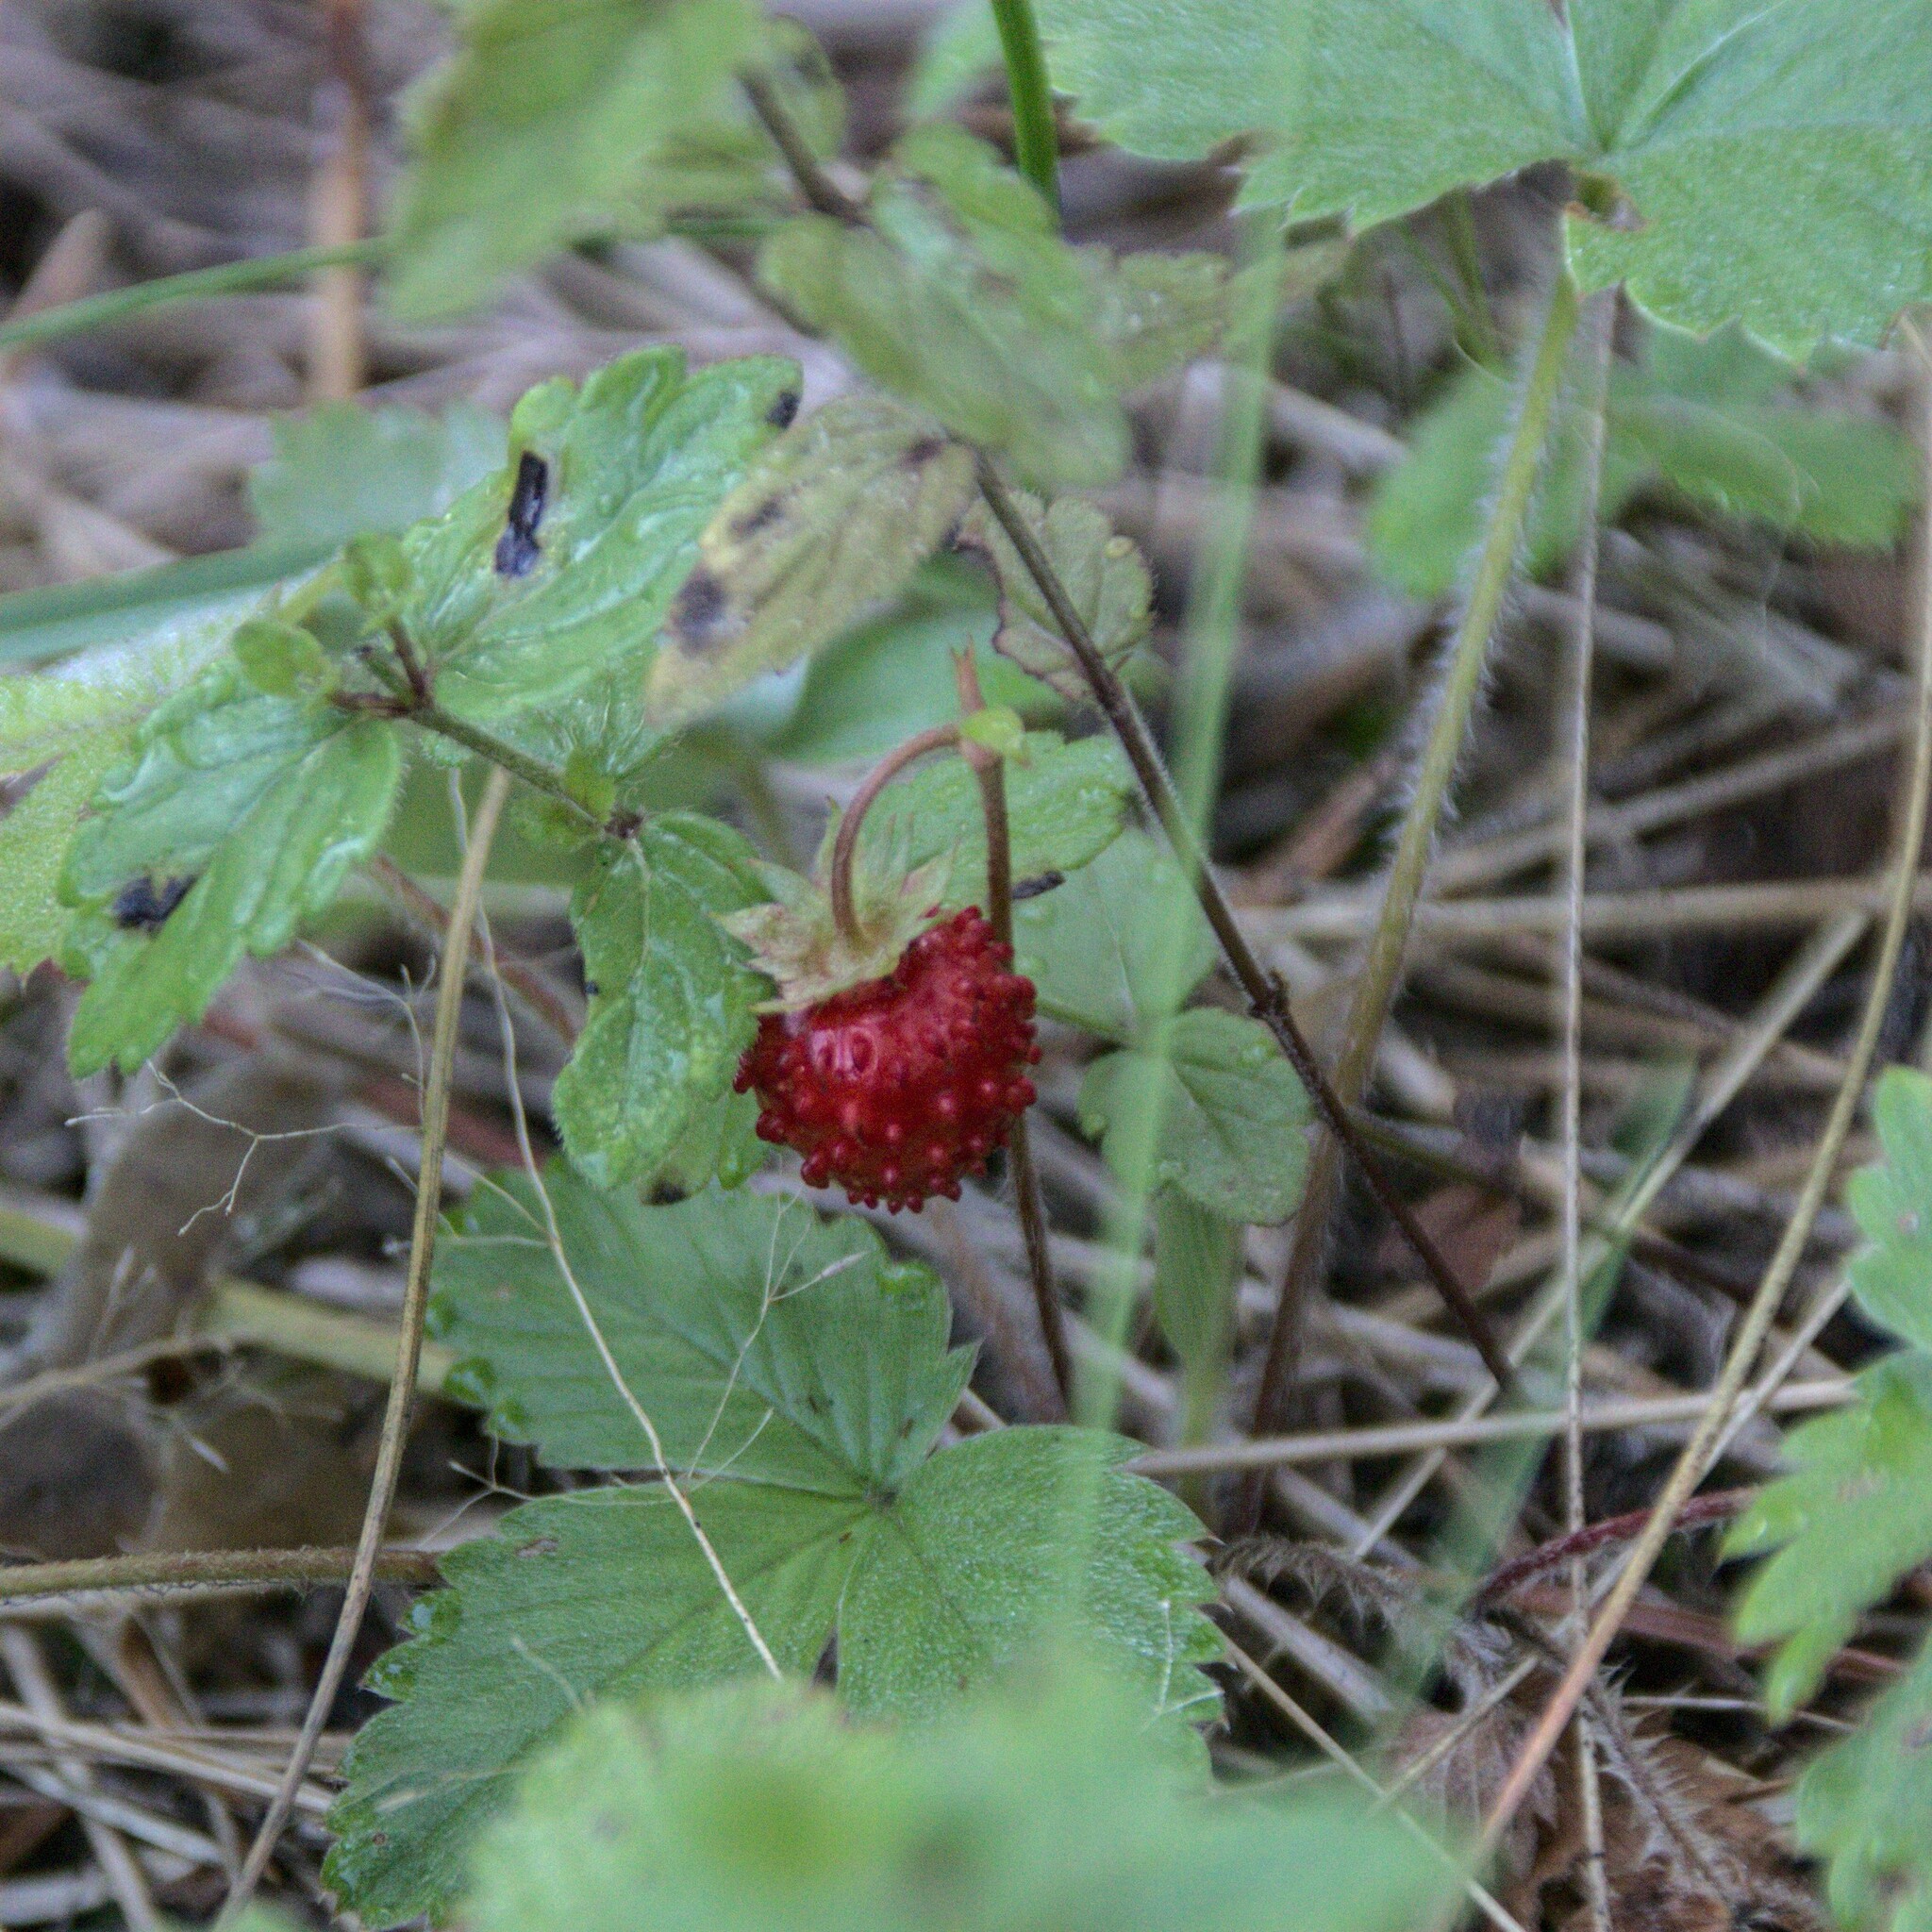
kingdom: Plantae
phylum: Tracheophyta
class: Magnoliopsida
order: Rosales
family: Rosaceae
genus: Fragaria
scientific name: Fragaria vesca
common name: Wild strawberry
